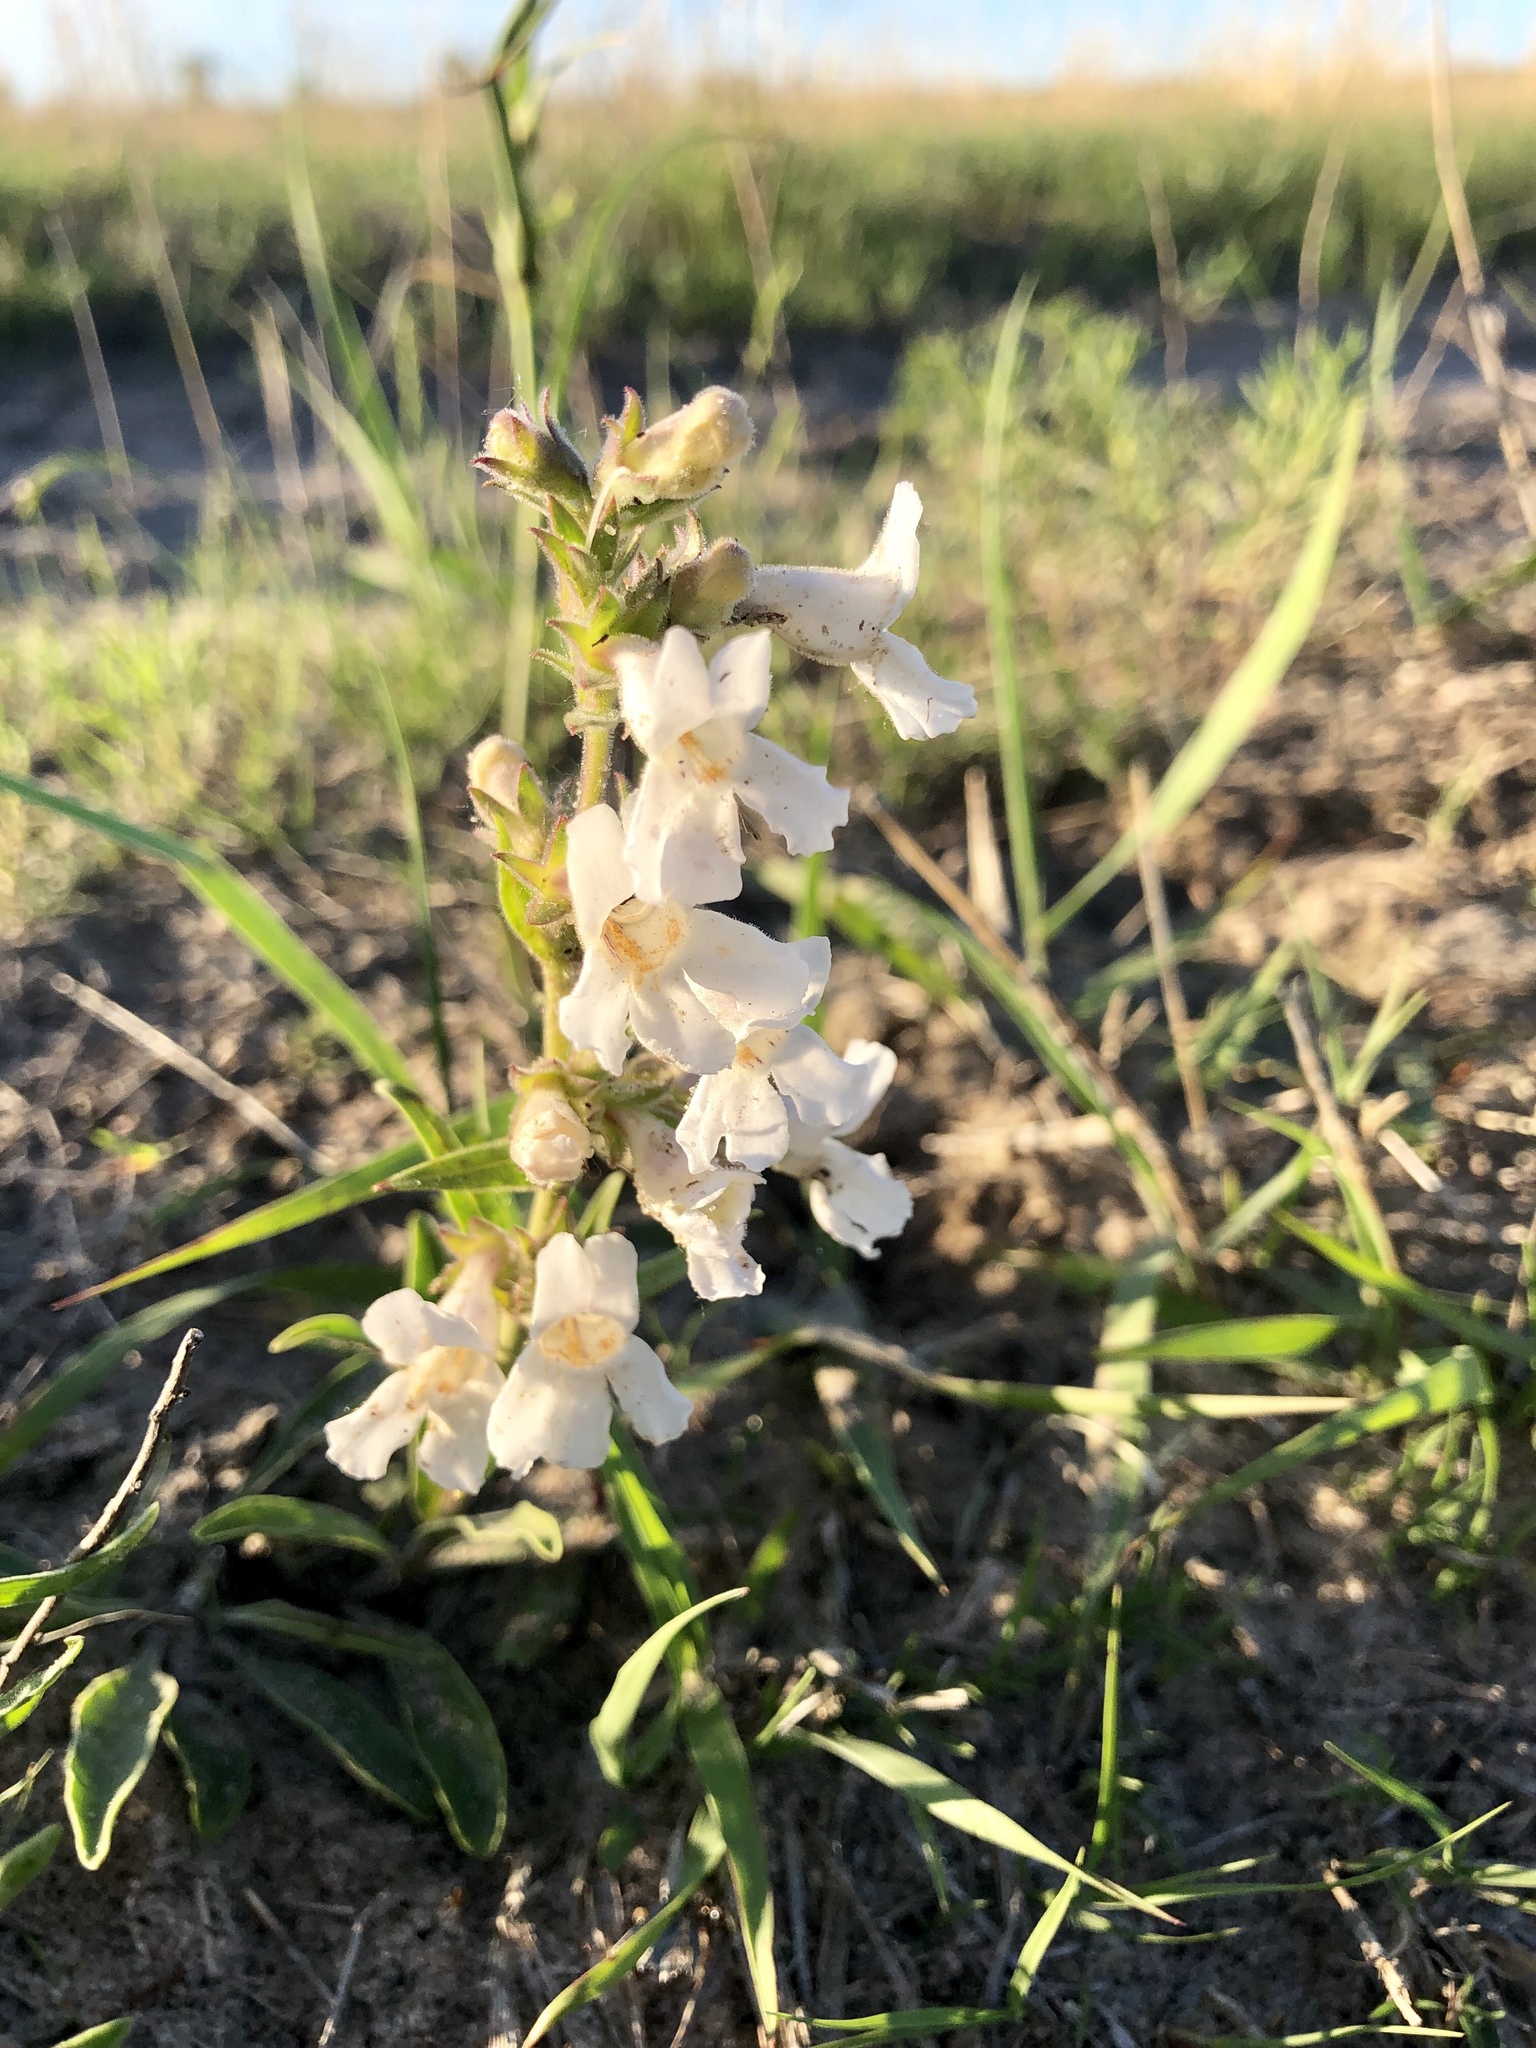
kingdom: Plantae
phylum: Tracheophyta
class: Magnoliopsida
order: Lamiales
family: Plantaginaceae
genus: Penstemon
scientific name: Penstemon albidus
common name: White beardtongue
